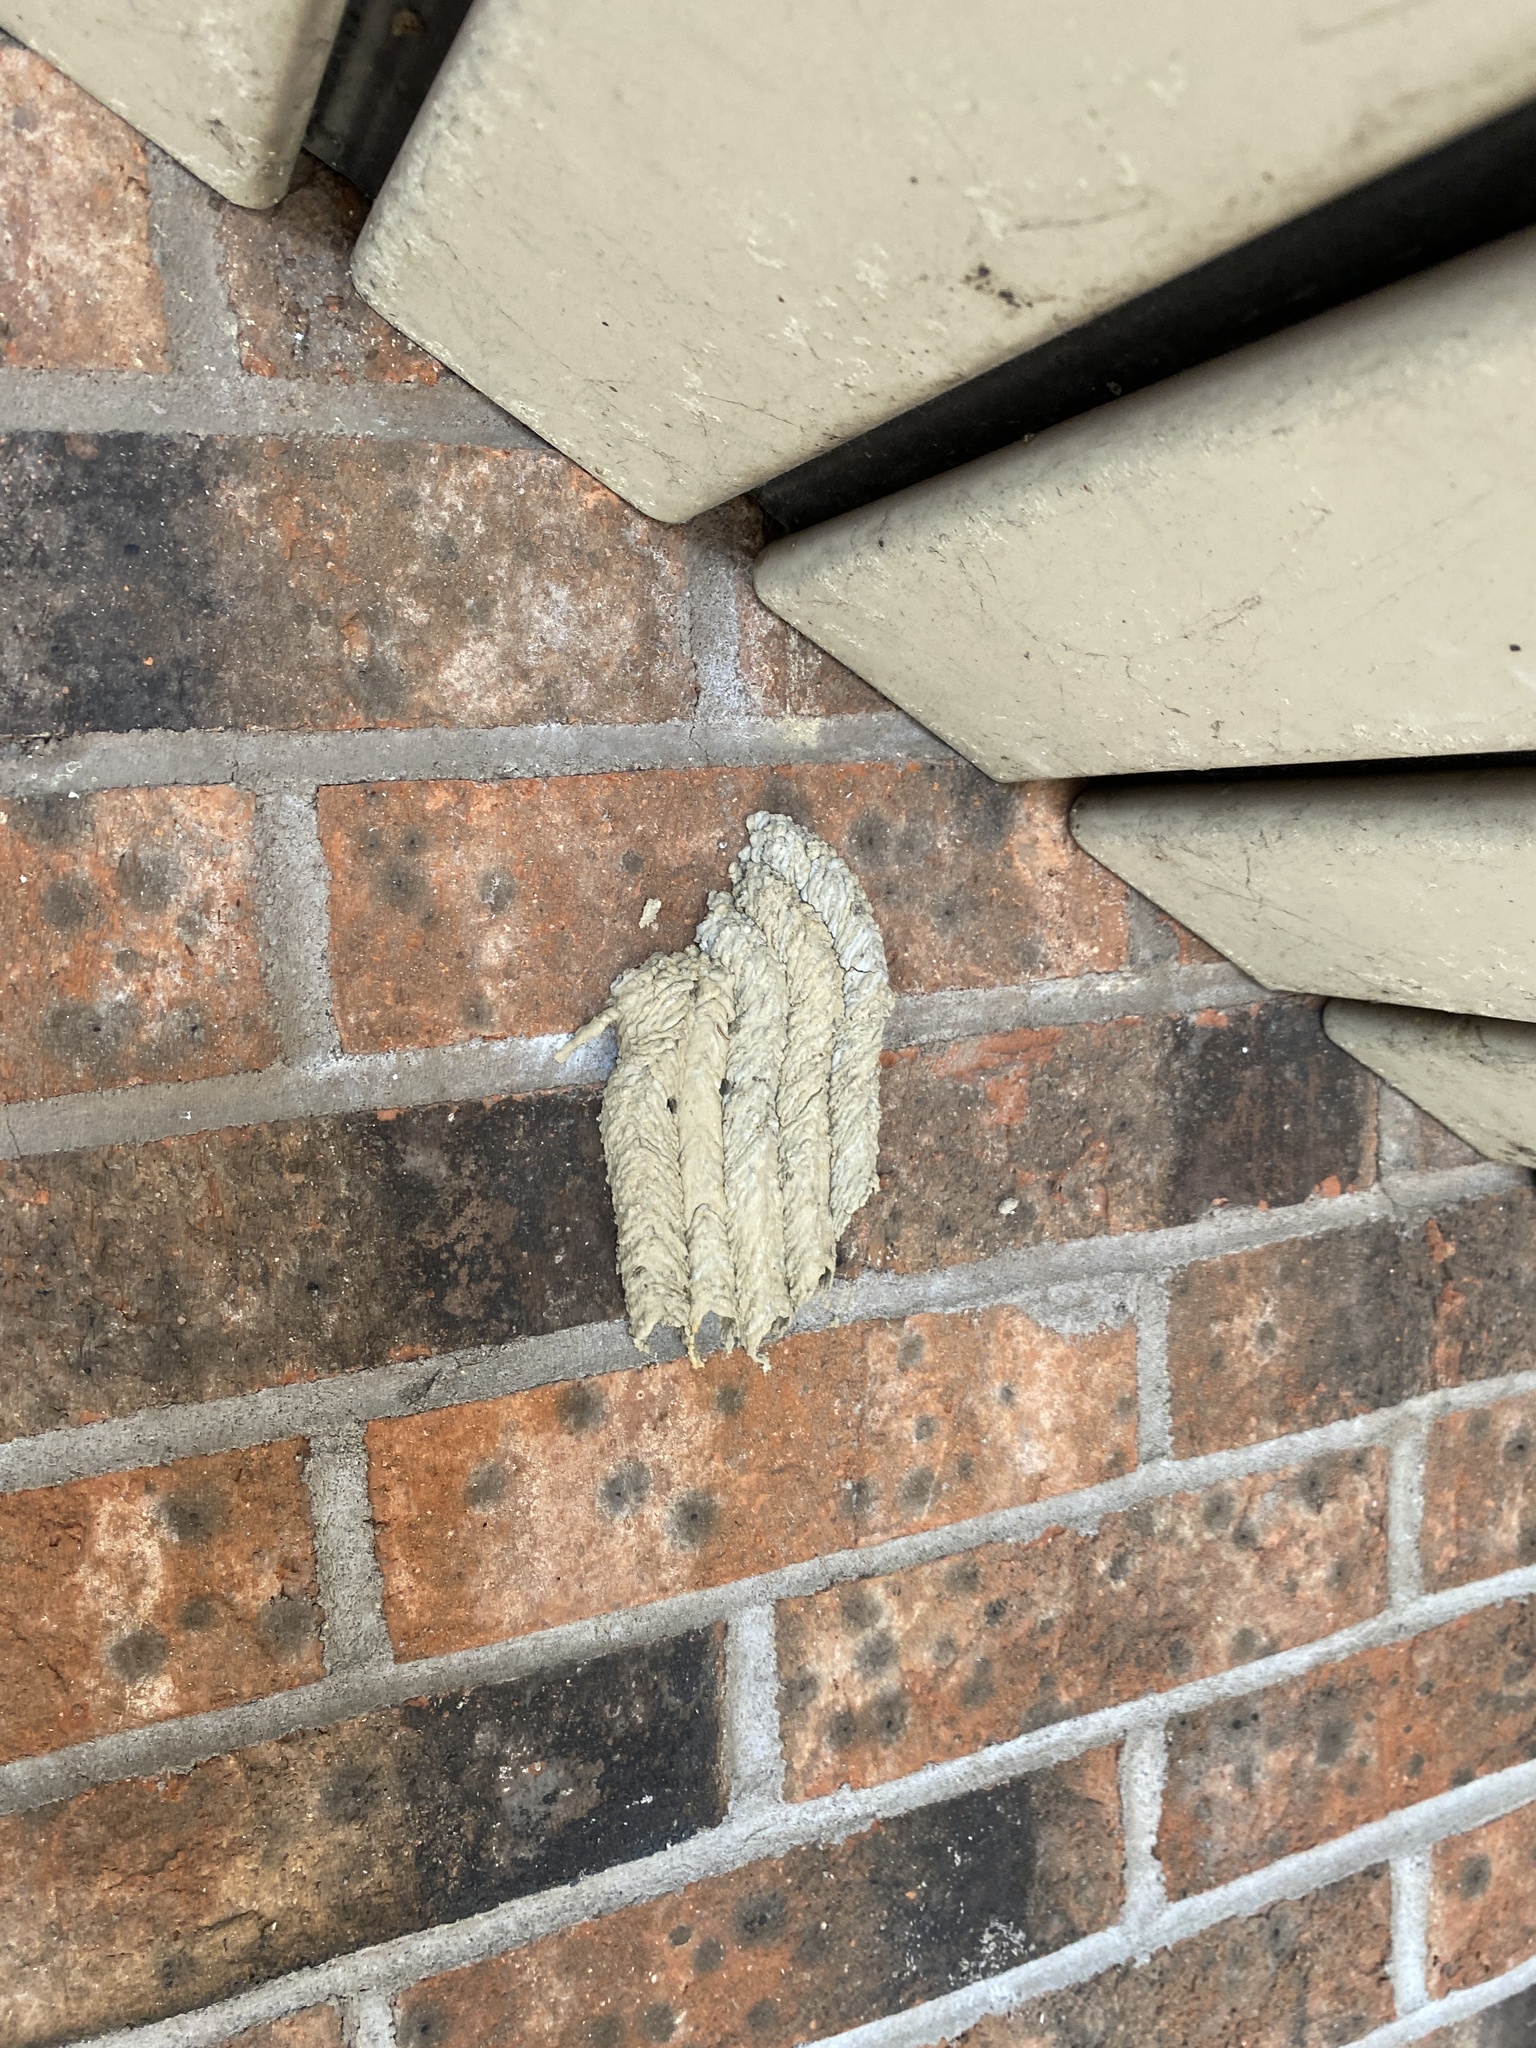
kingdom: Animalia
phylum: Arthropoda
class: Insecta
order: Hymenoptera
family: Crabronidae
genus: Trypoxylon
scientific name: Trypoxylon politum
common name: Organ-pipe mud-dauber wasp
